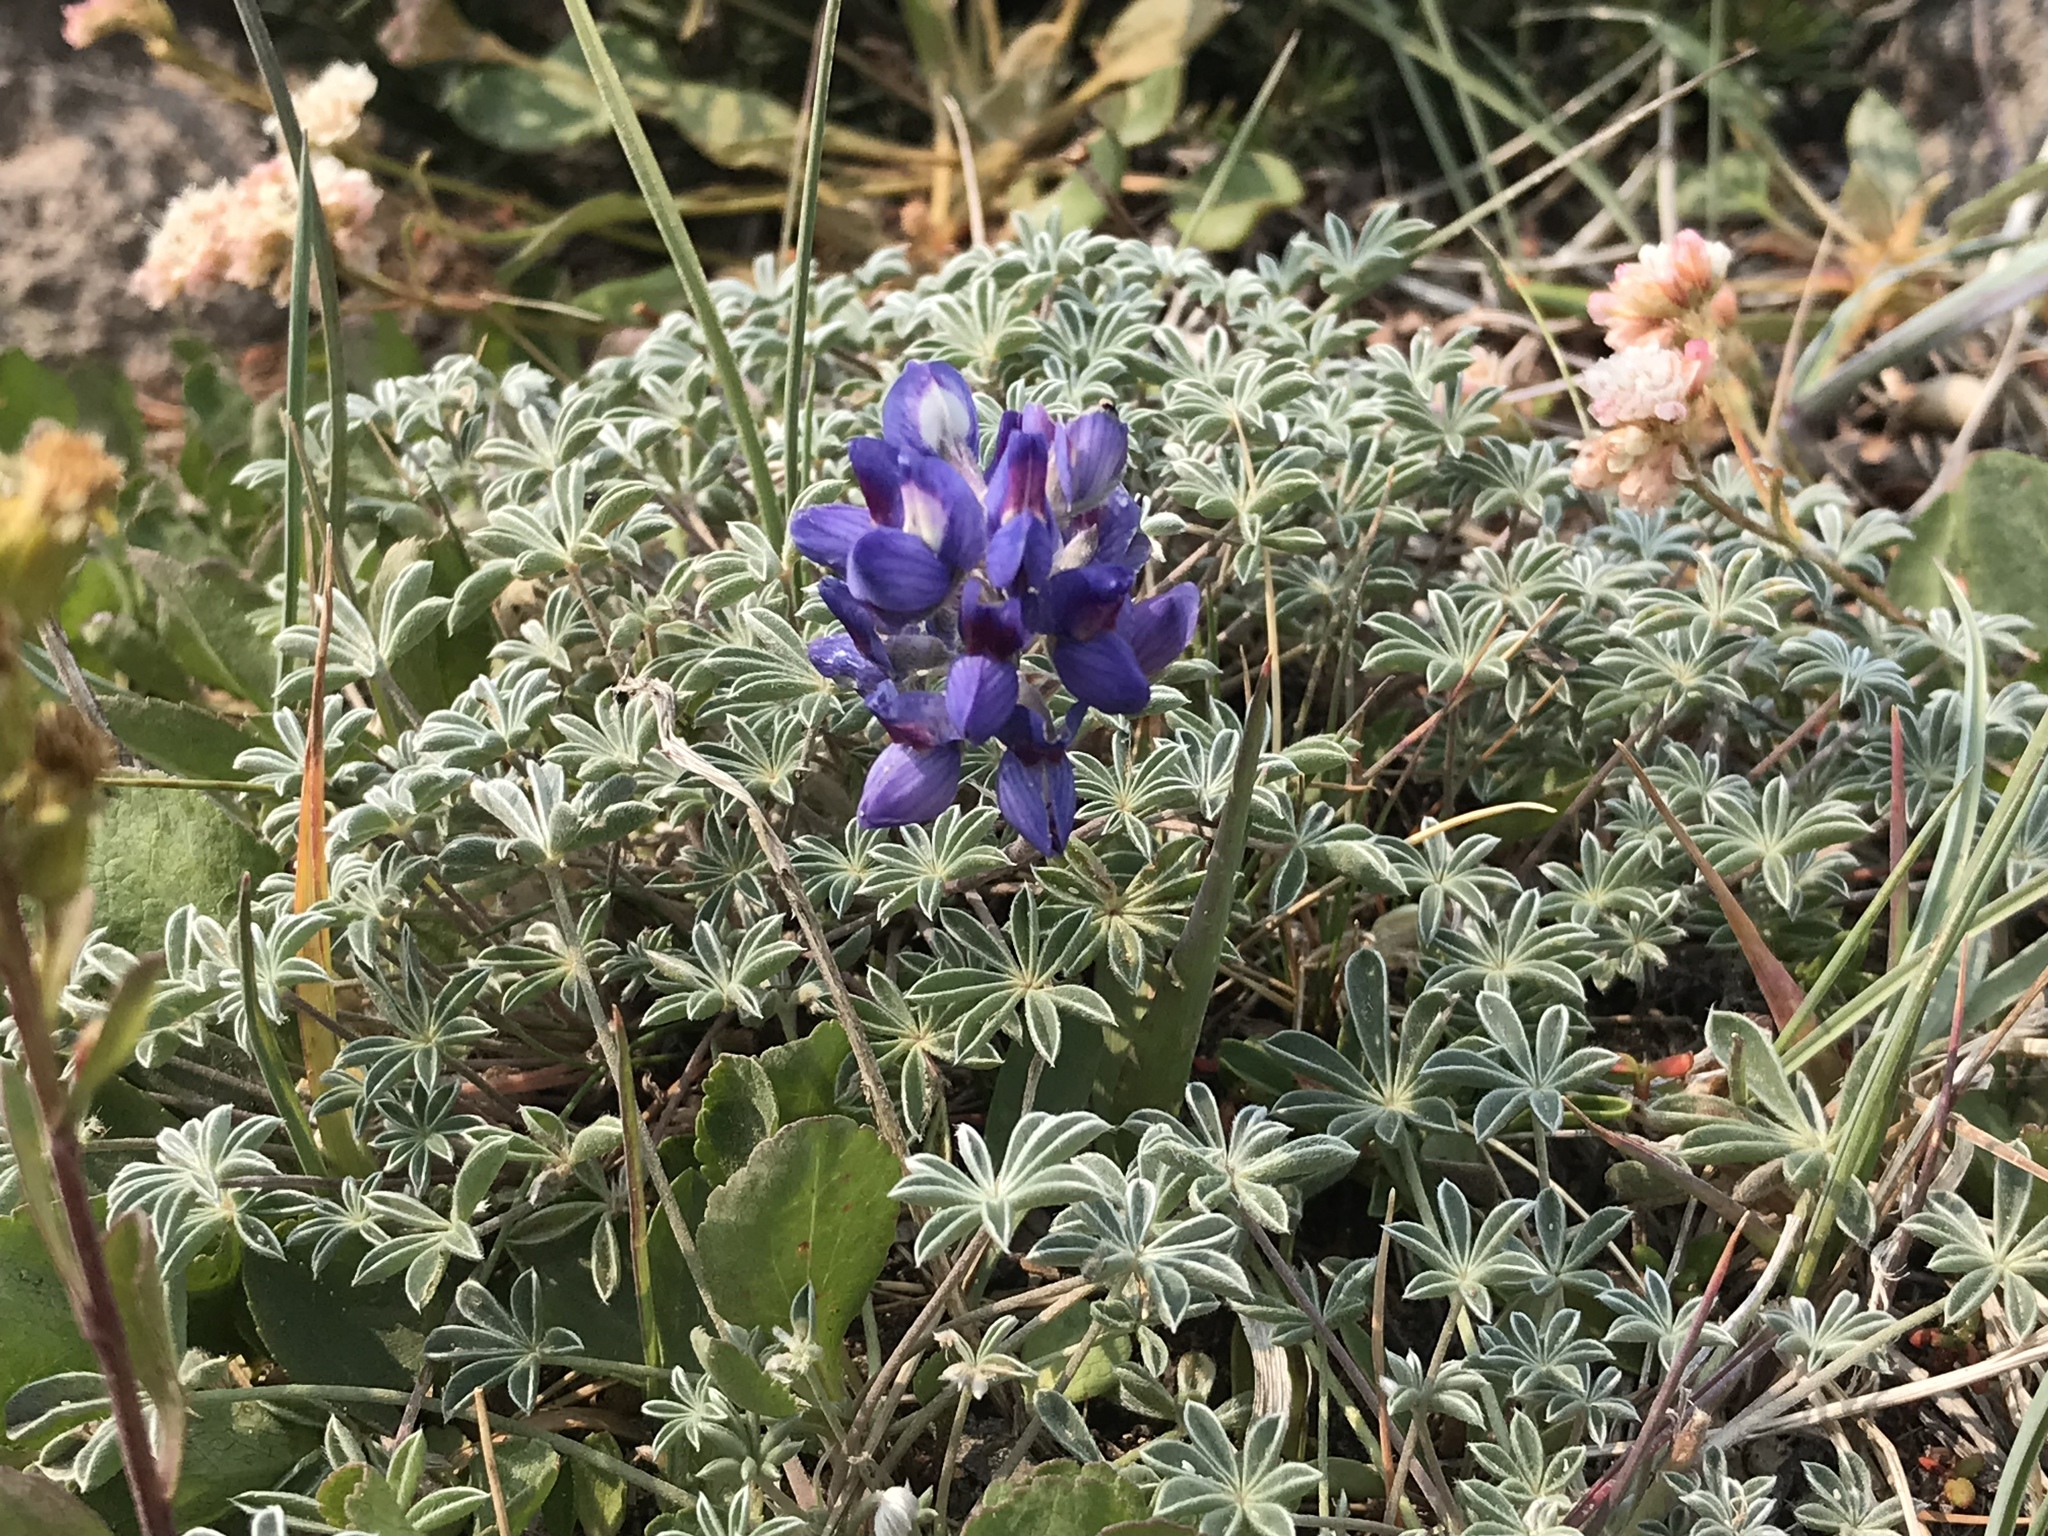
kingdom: Plantae
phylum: Tracheophyta
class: Magnoliopsida
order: Fabales
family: Fabaceae
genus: Lupinus
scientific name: Lupinus sellulus
